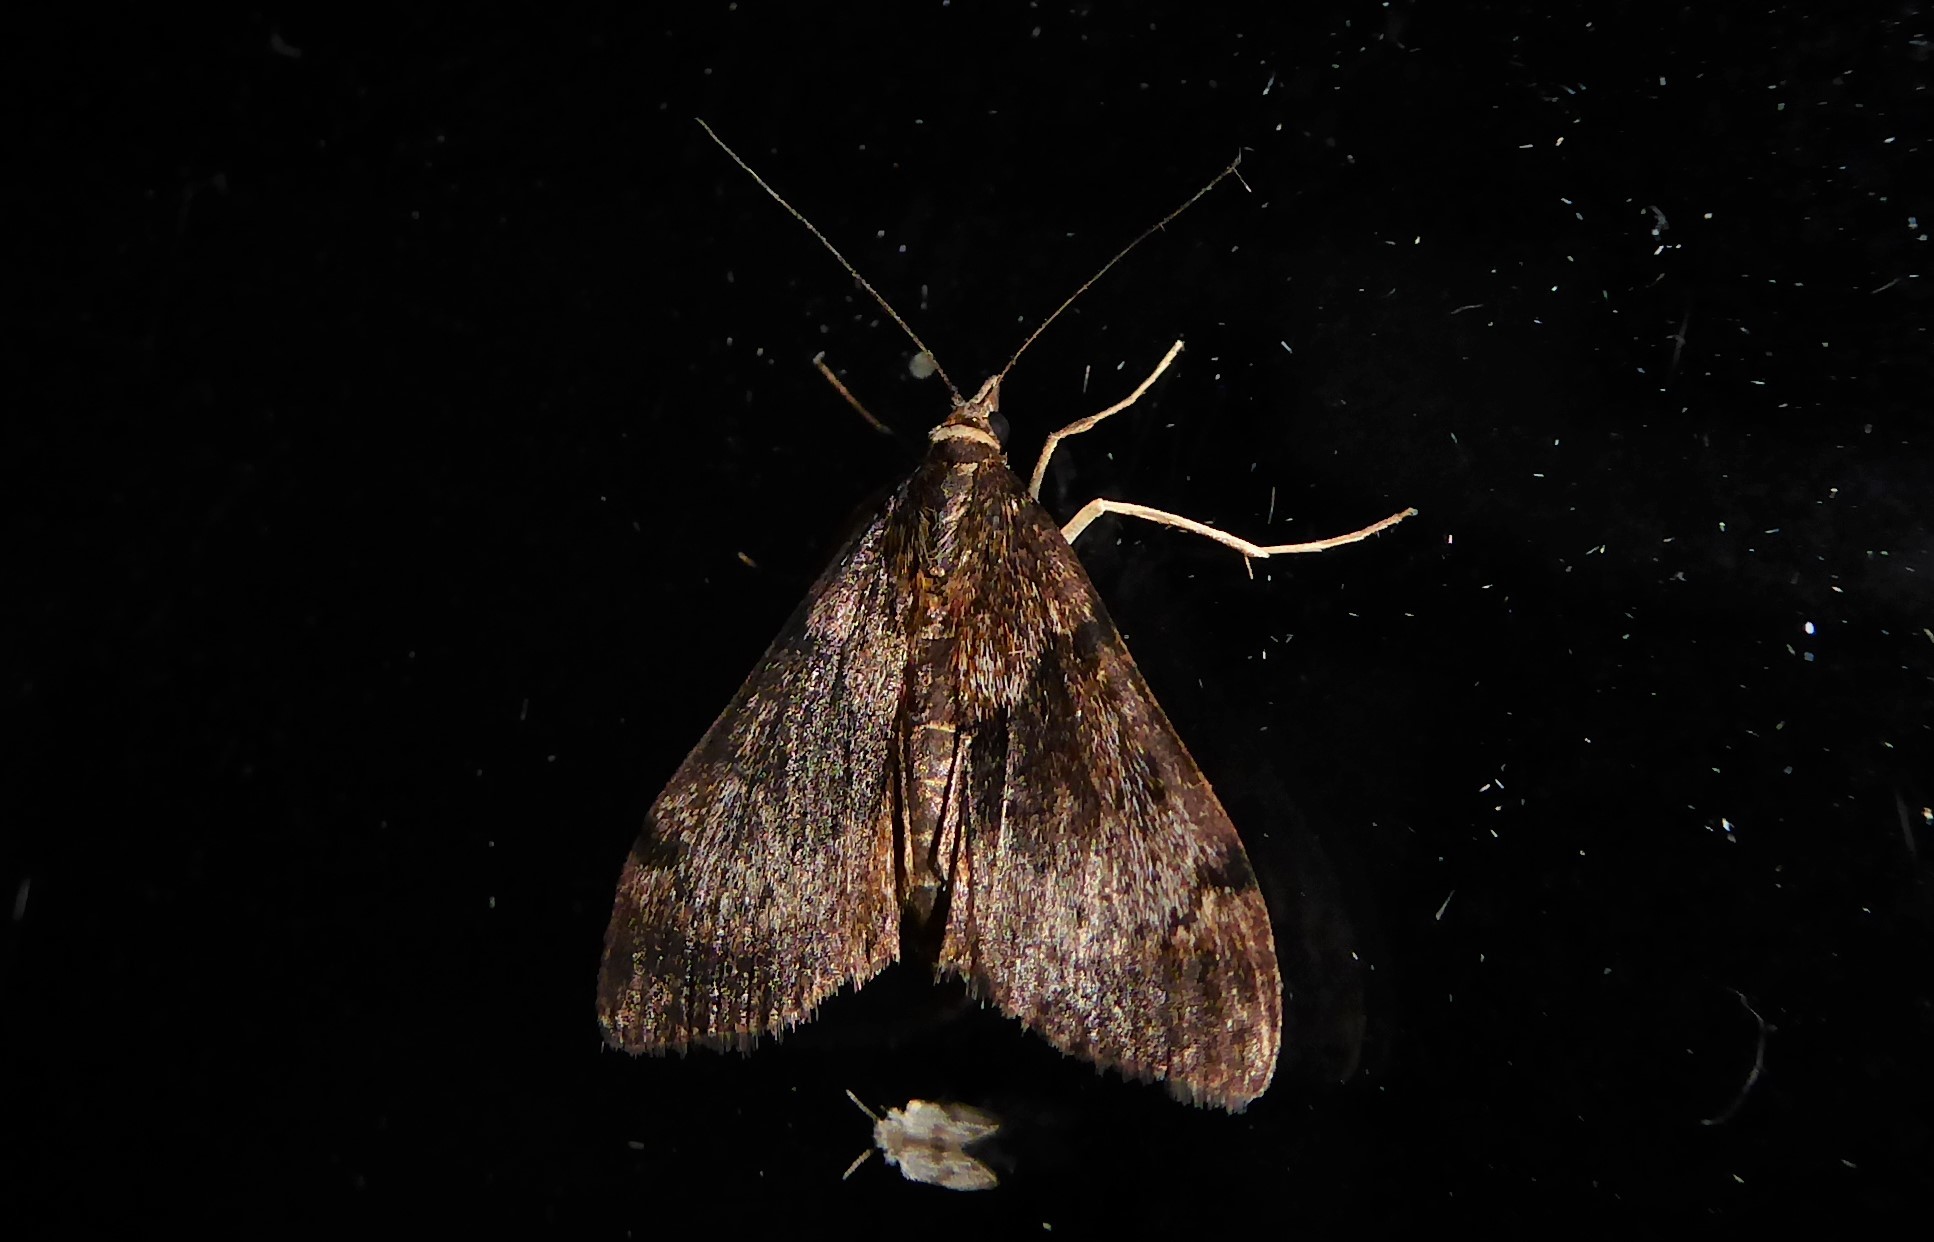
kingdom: Animalia
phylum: Arthropoda
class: Insecta
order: Lepidoptera
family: Crambidae
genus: Uresiphita
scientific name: Uresiphita
